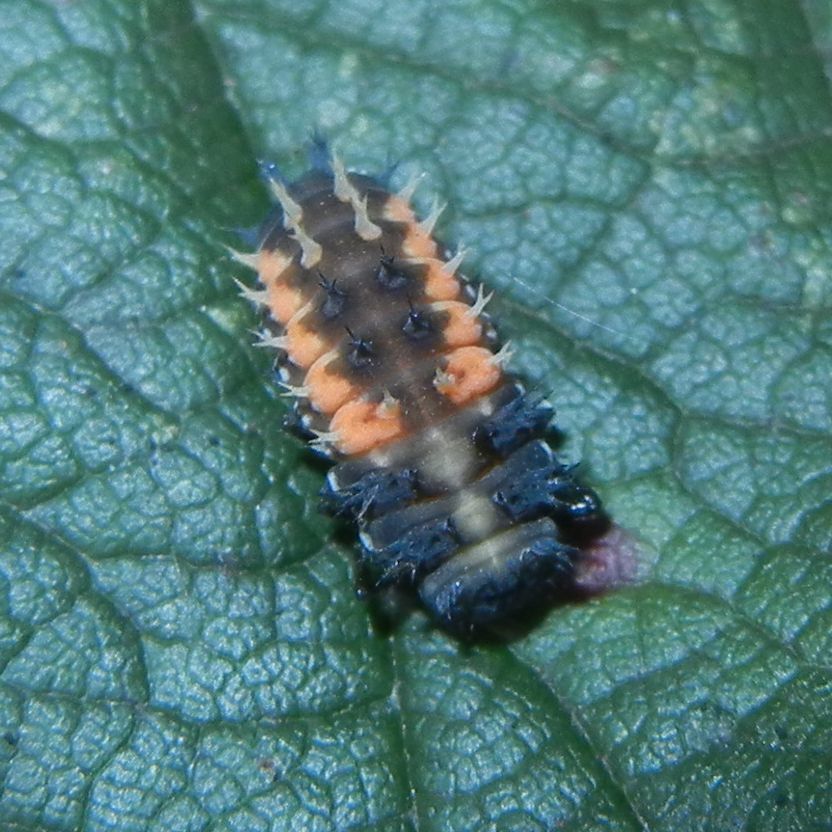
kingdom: Animalia
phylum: Arthropoda
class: Insecta
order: Coleoptera
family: Coccinellidae
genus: Harmonia
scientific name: Harmonia axyridis
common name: Harlequin ladybird
